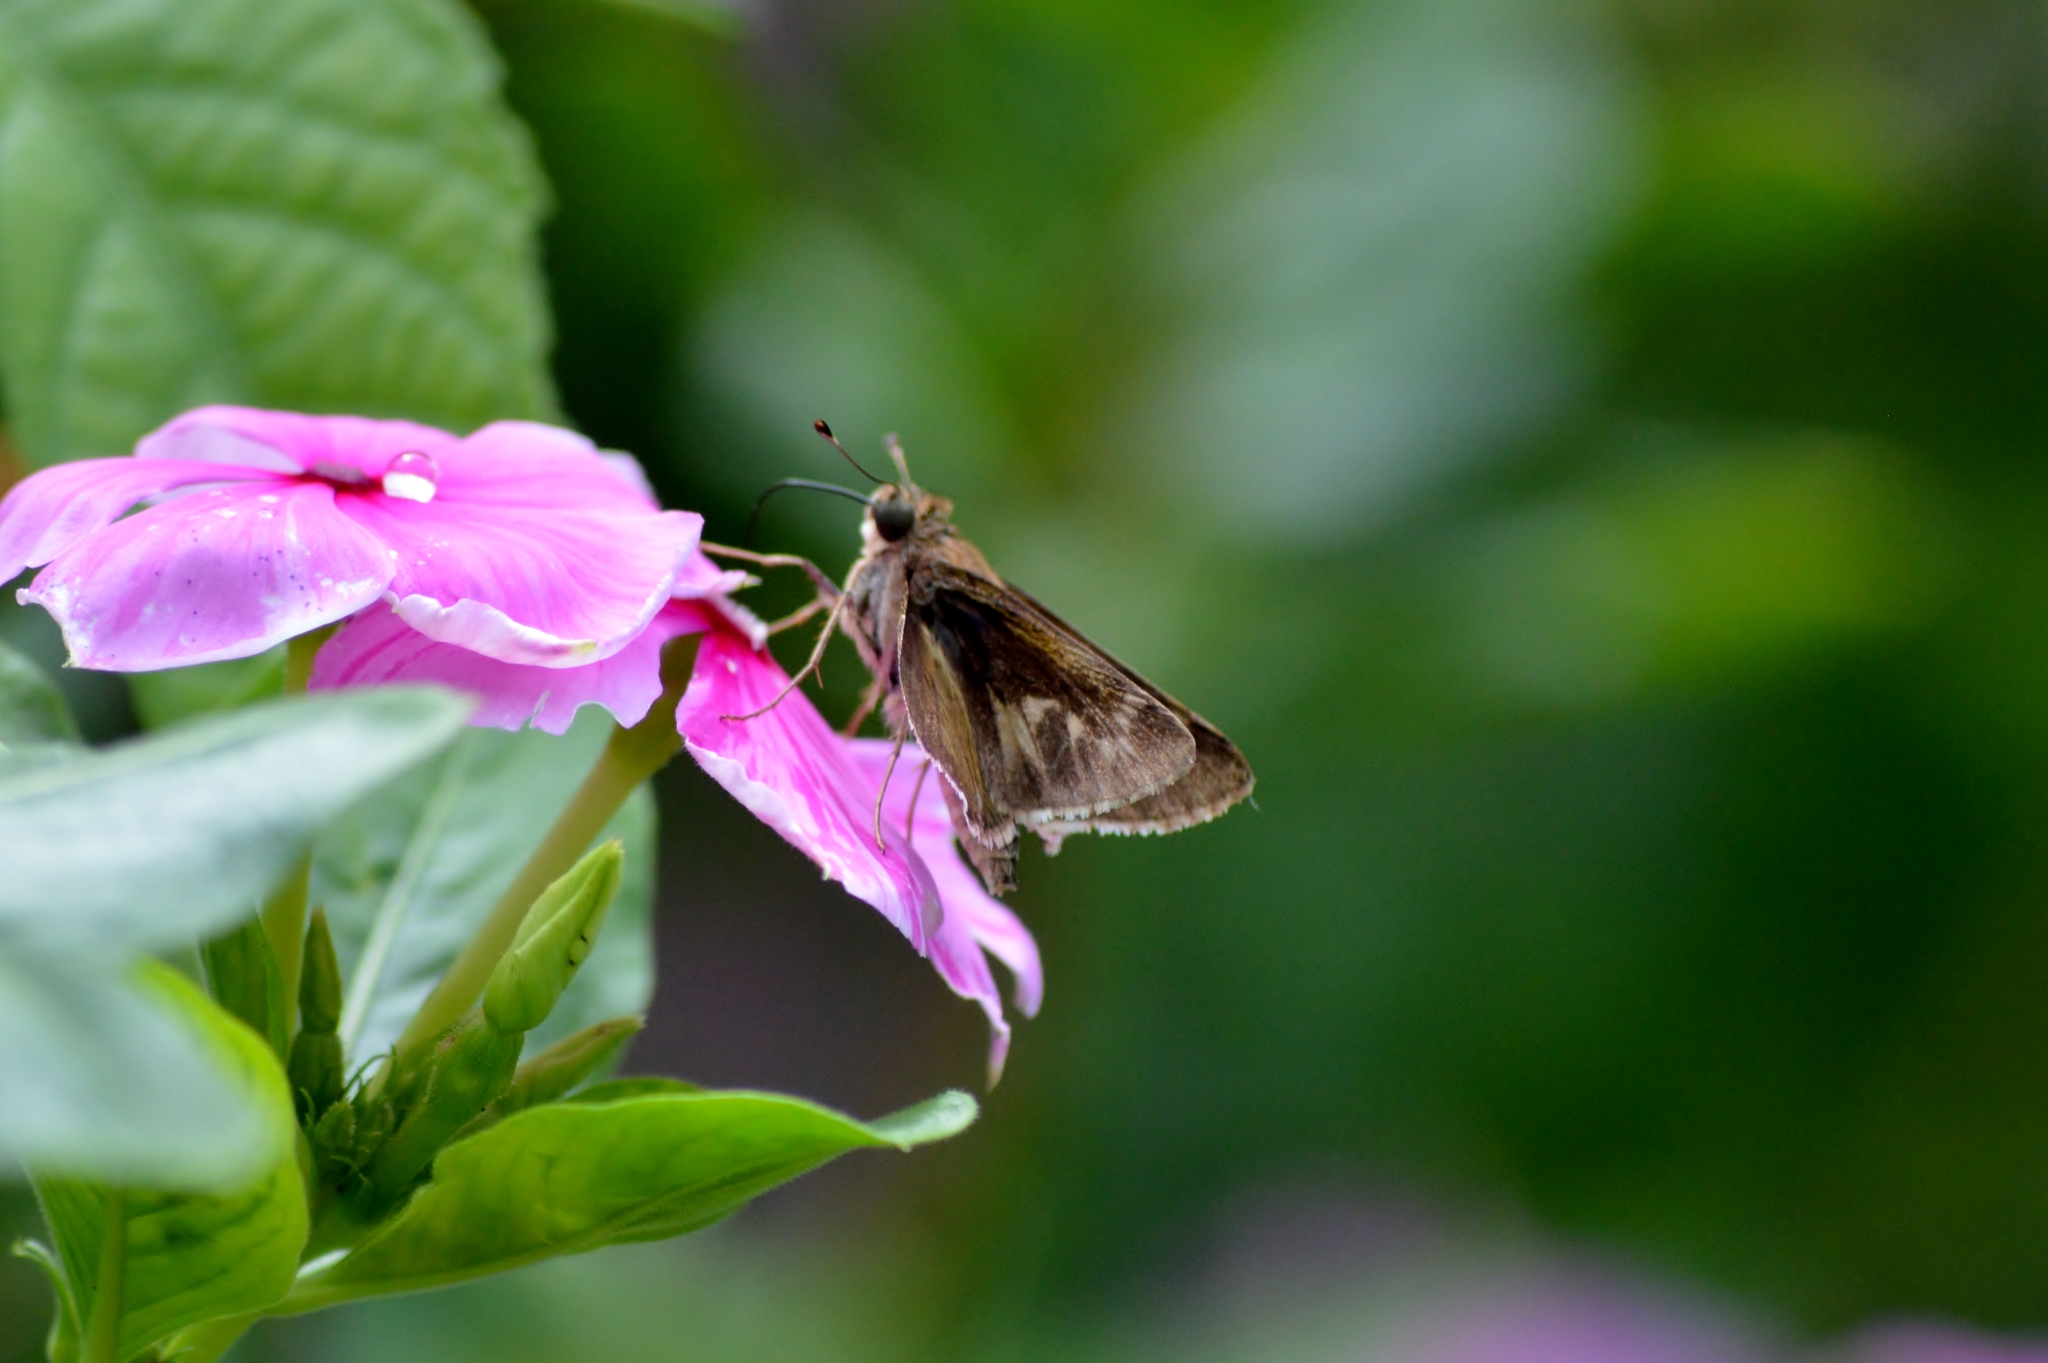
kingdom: Animalia
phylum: Arthropoda
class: Insecta
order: Lepidoptera
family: Hesperiidae
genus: Pompeius
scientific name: Pompeius pompeius
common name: Pompeius skipper
